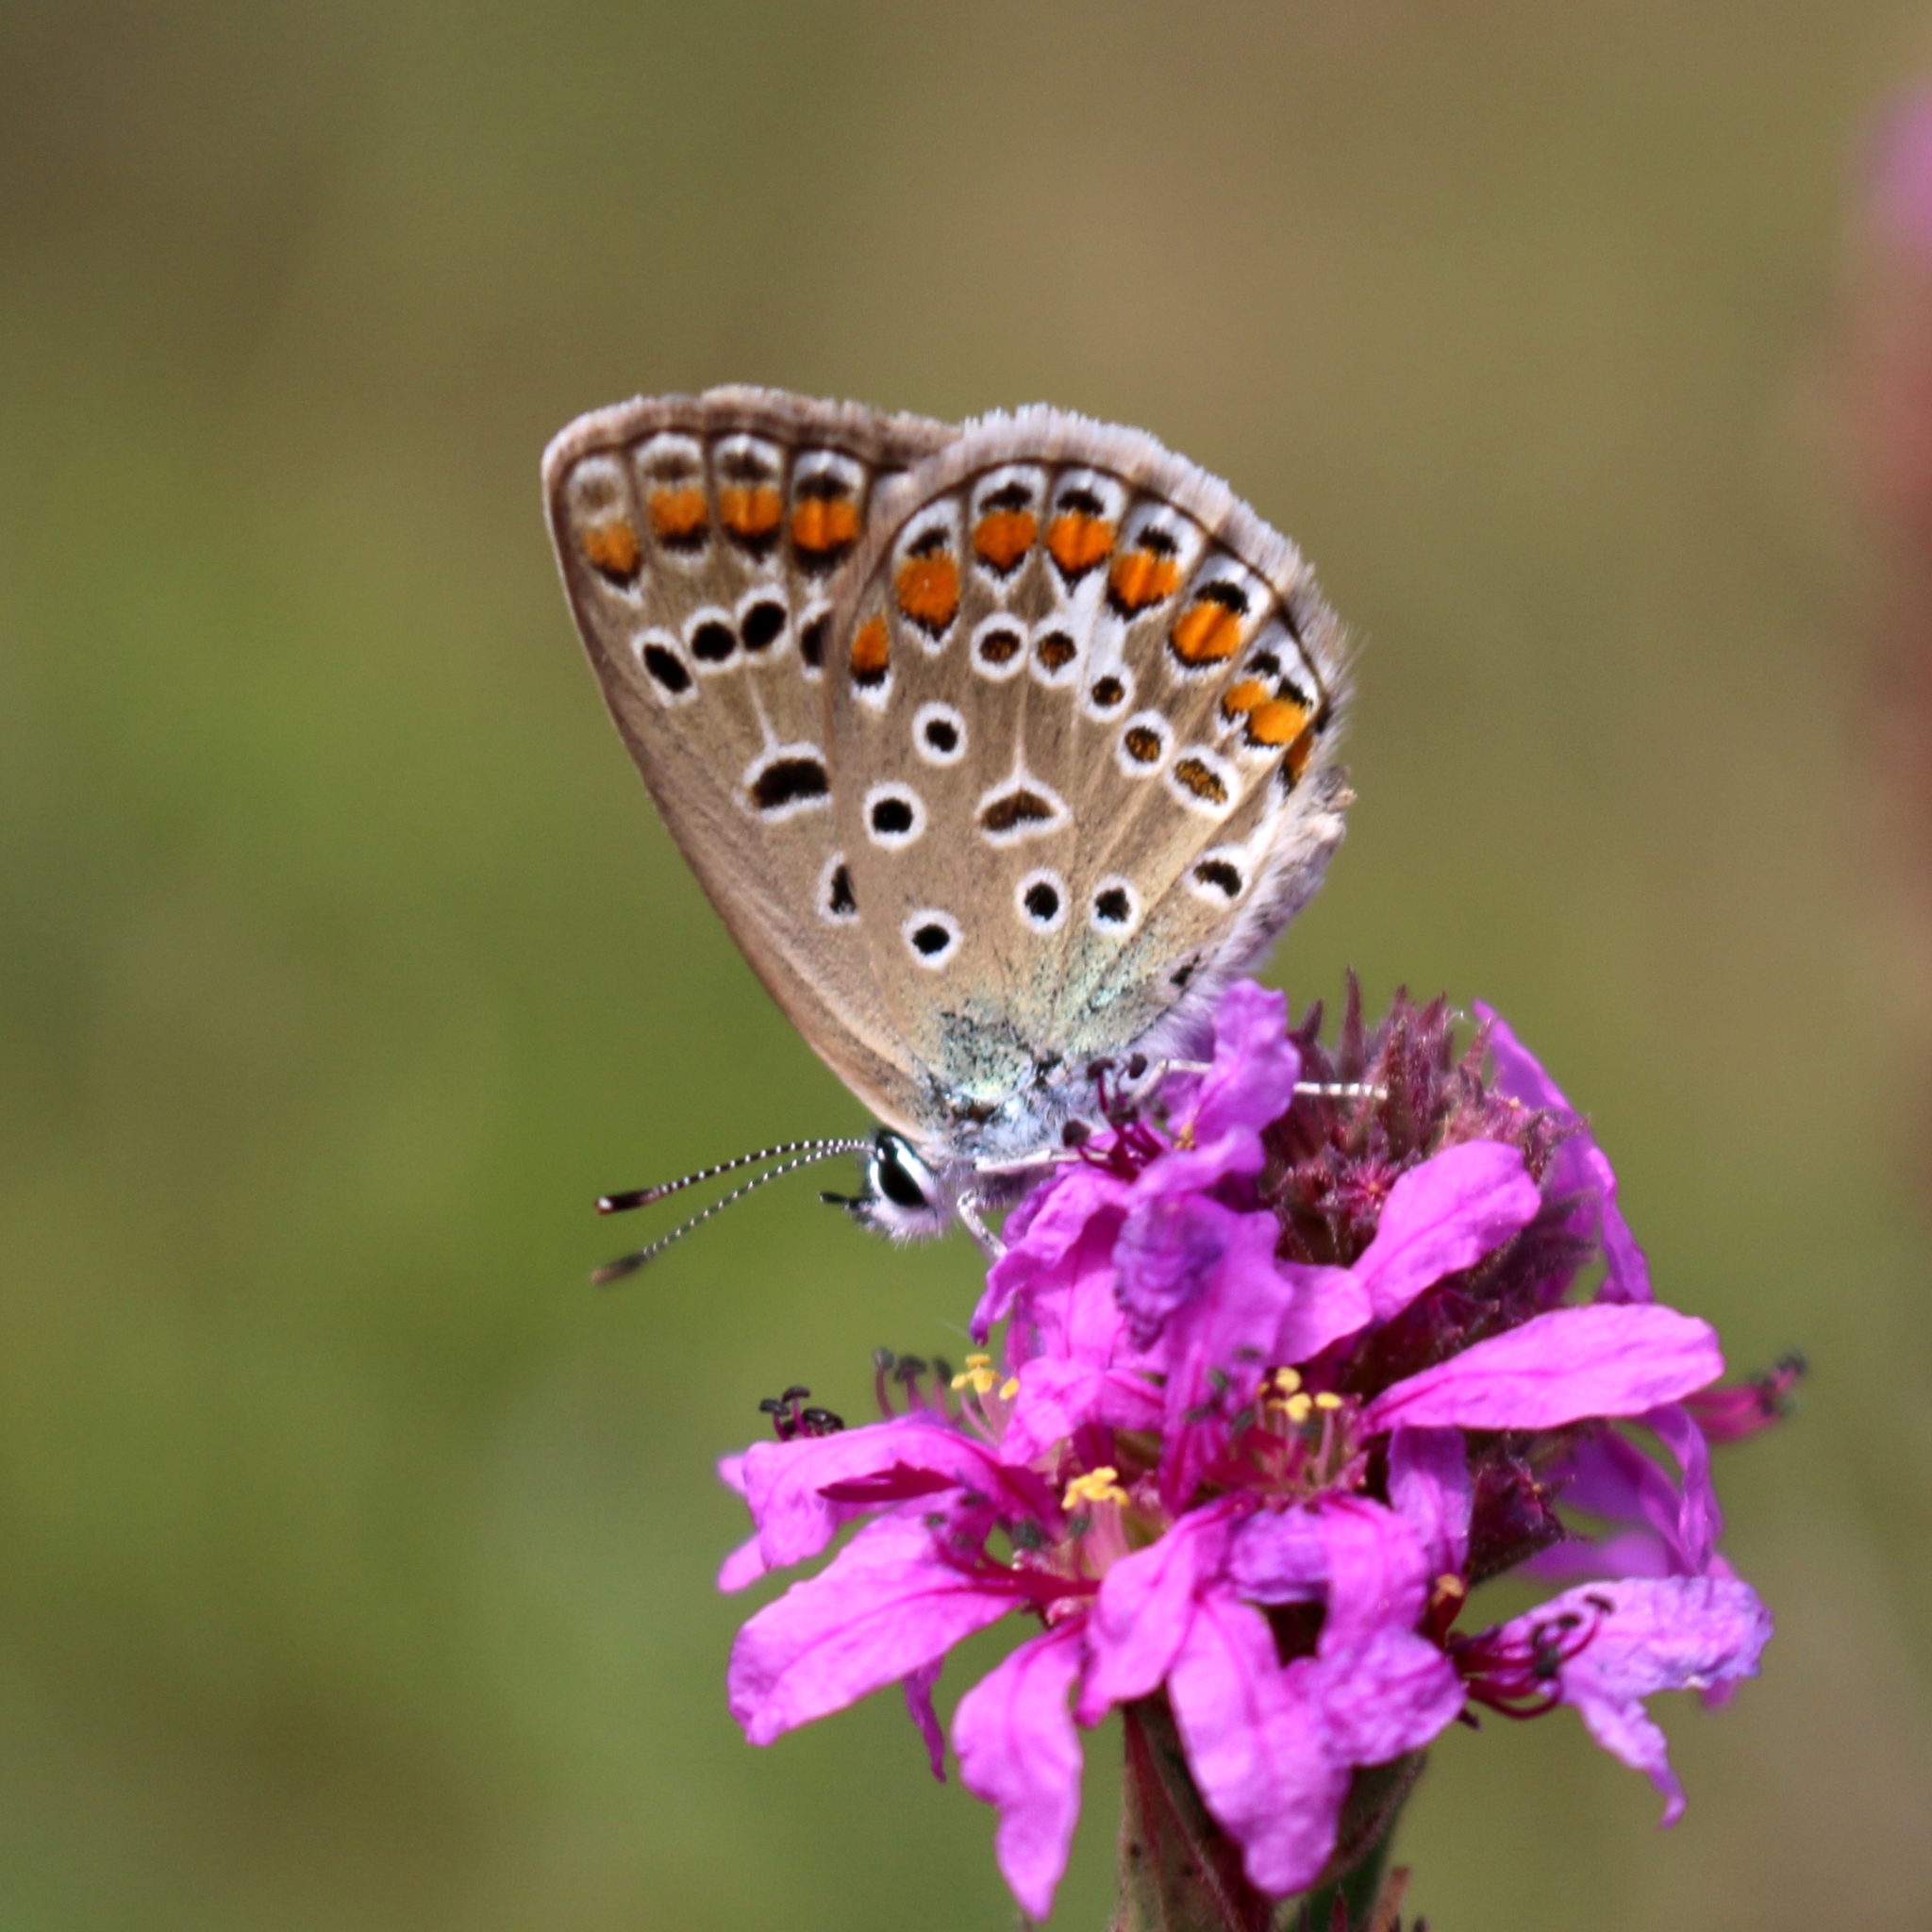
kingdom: Animalia
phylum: Arthropoda
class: Insecta
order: Lepidoptera
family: Lycaenidae
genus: Polyommatus
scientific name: Polyommatus icarus
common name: Common blue
